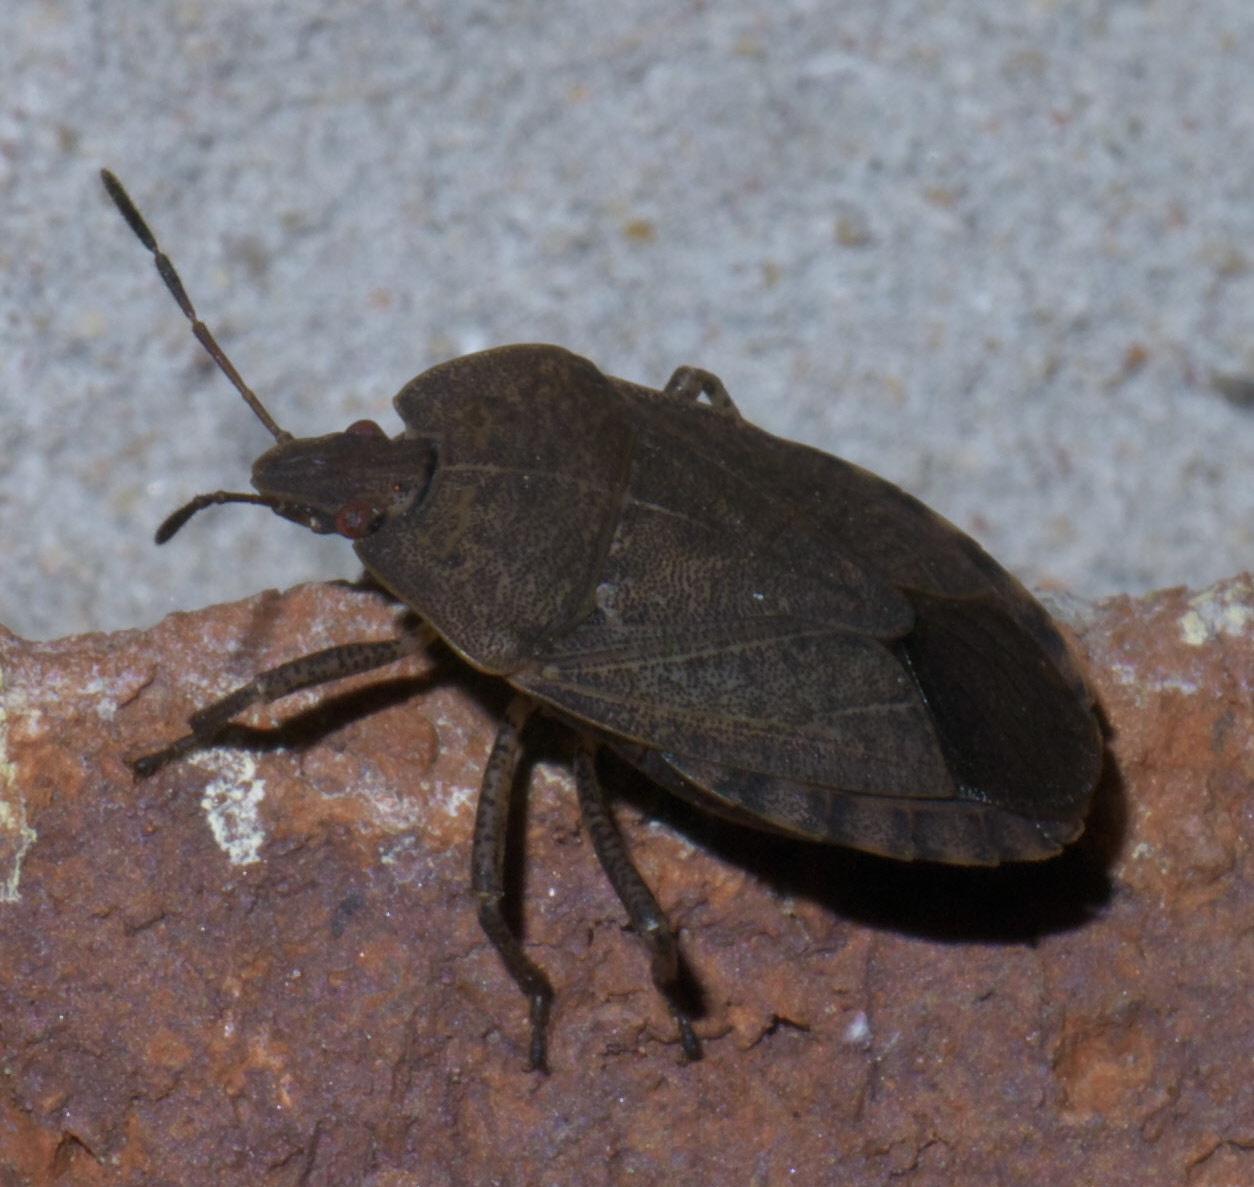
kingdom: Animalia
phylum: Arthropoda
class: Insecta
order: Hemiptera
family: Pentatomidae
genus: Menecles
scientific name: Menecles insertus
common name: Elf shoe stink bug
